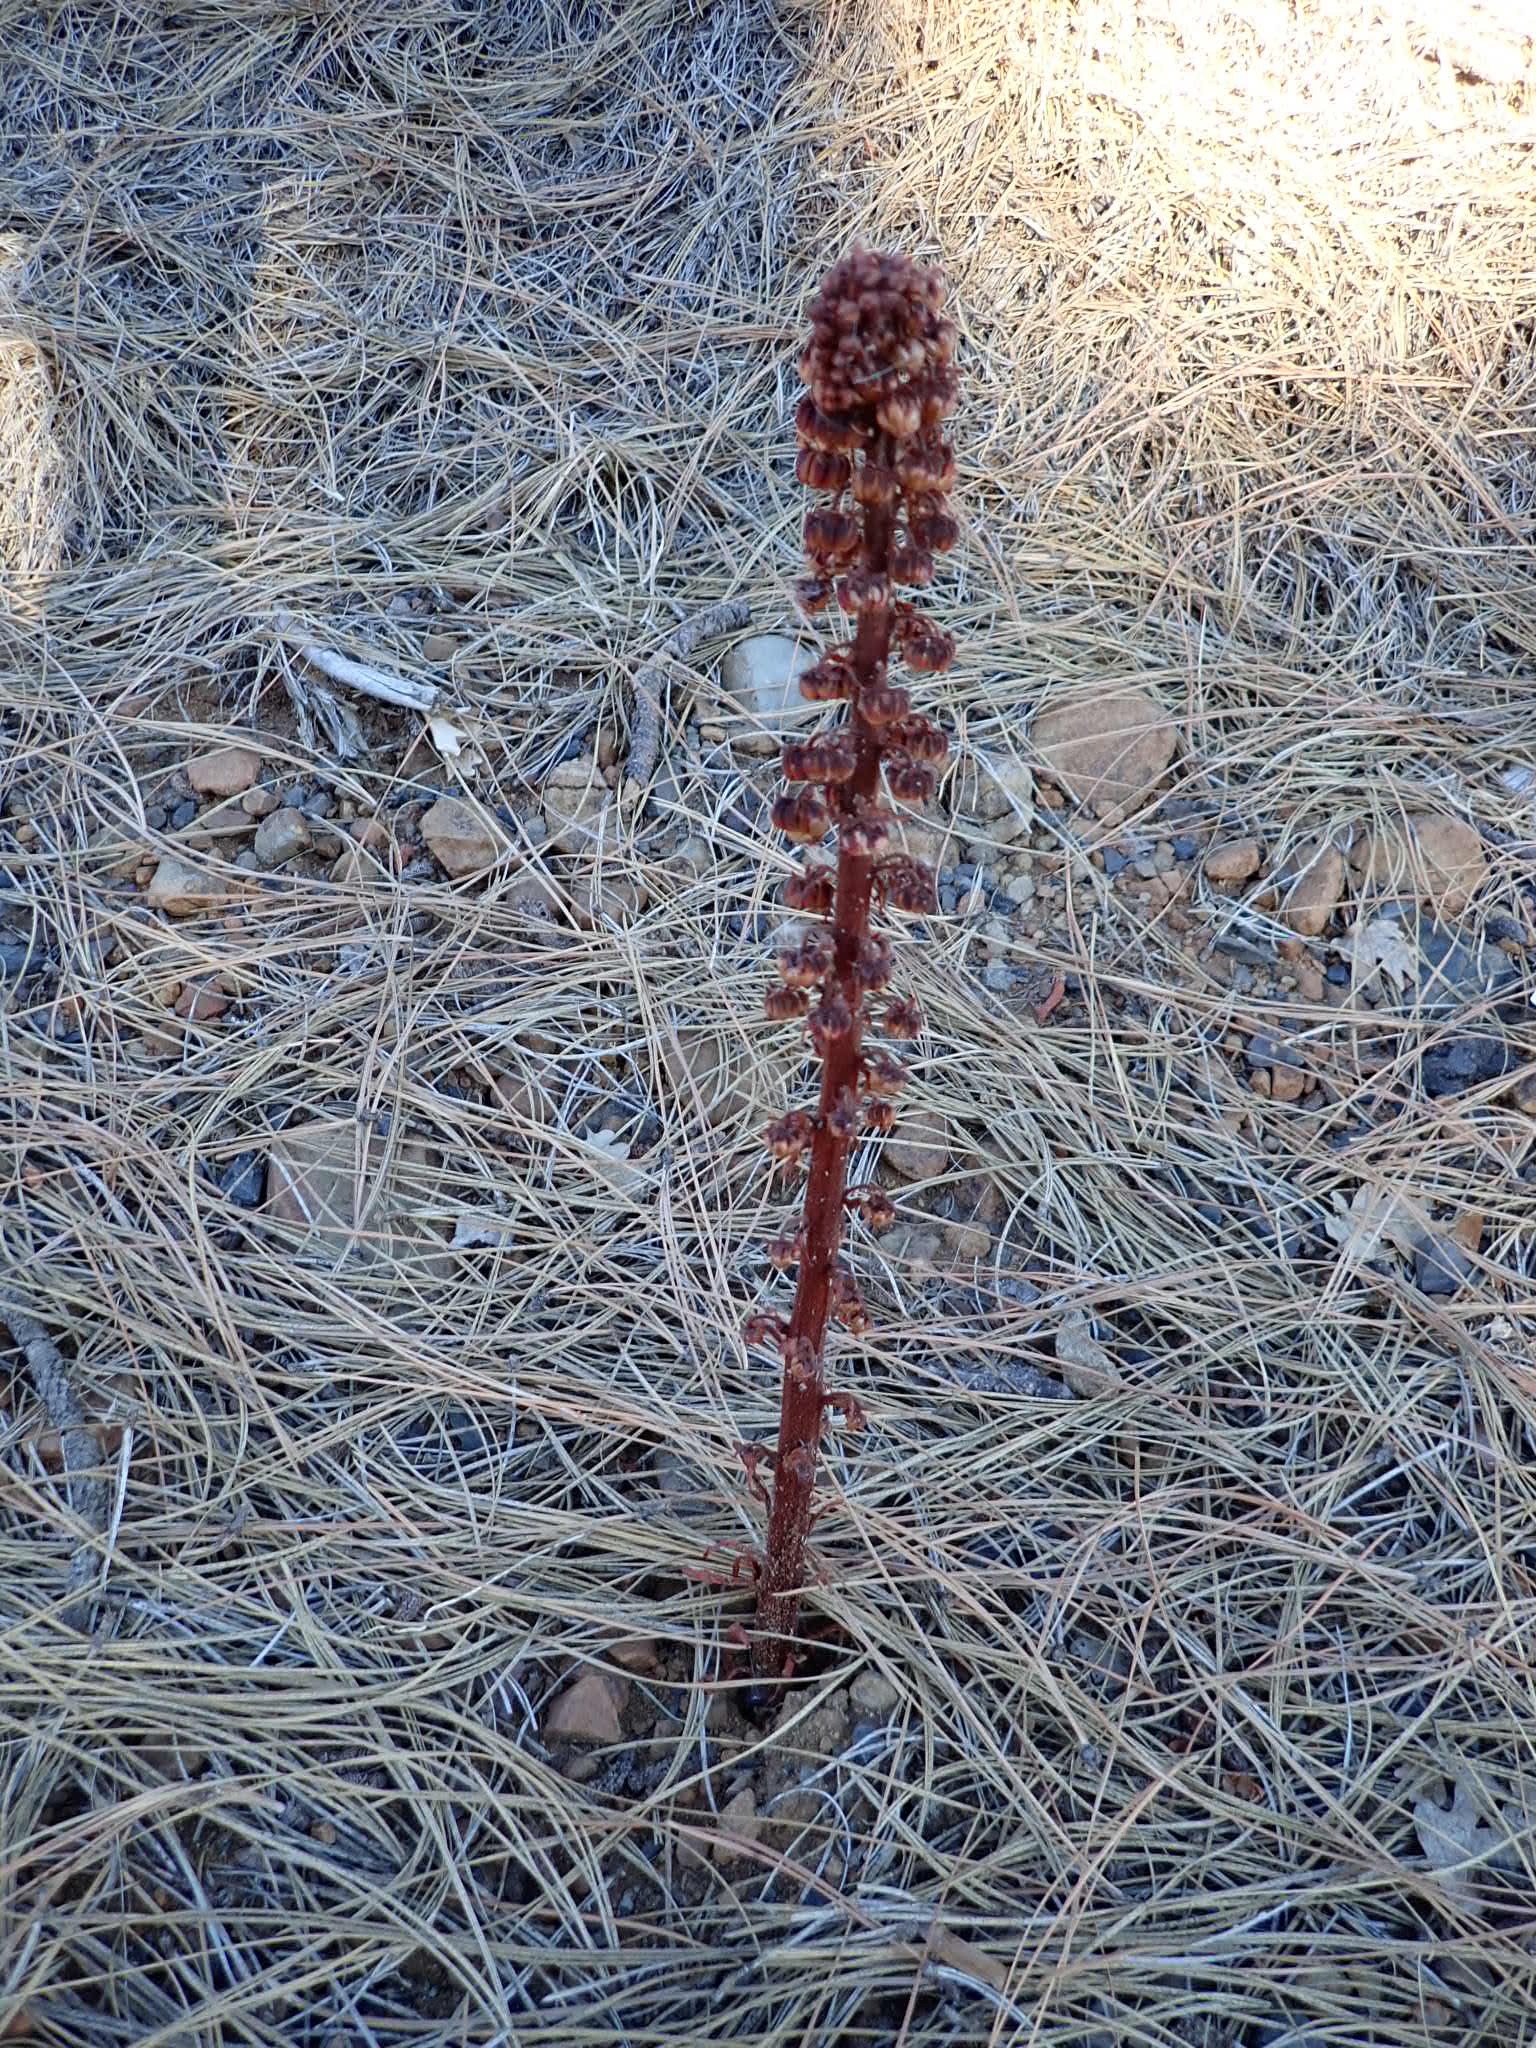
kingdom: Plantae
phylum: Tracheophyta
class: Magnoliopsida
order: Ericales
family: Ericaceae
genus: Pterospora
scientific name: Pterospora andromedea
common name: Giant bird's-nest
